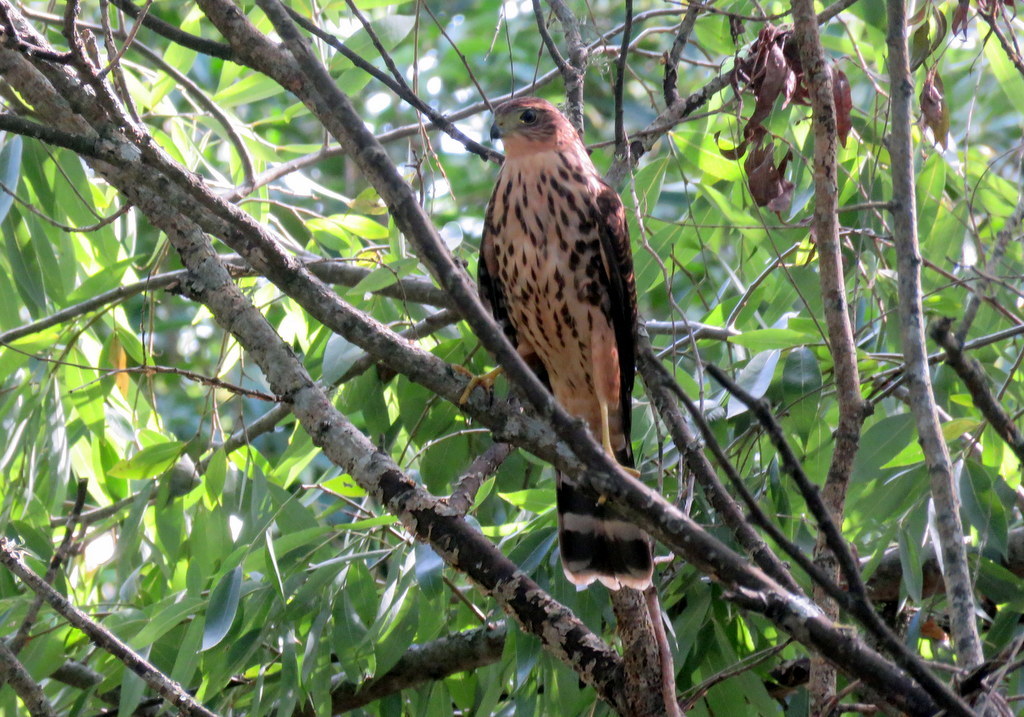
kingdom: Animalia
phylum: Chordata
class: Aves
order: Accipitriformes
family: Accipitridae
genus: Accipiter
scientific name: Accipiter bicolor
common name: Bicolored hawk
